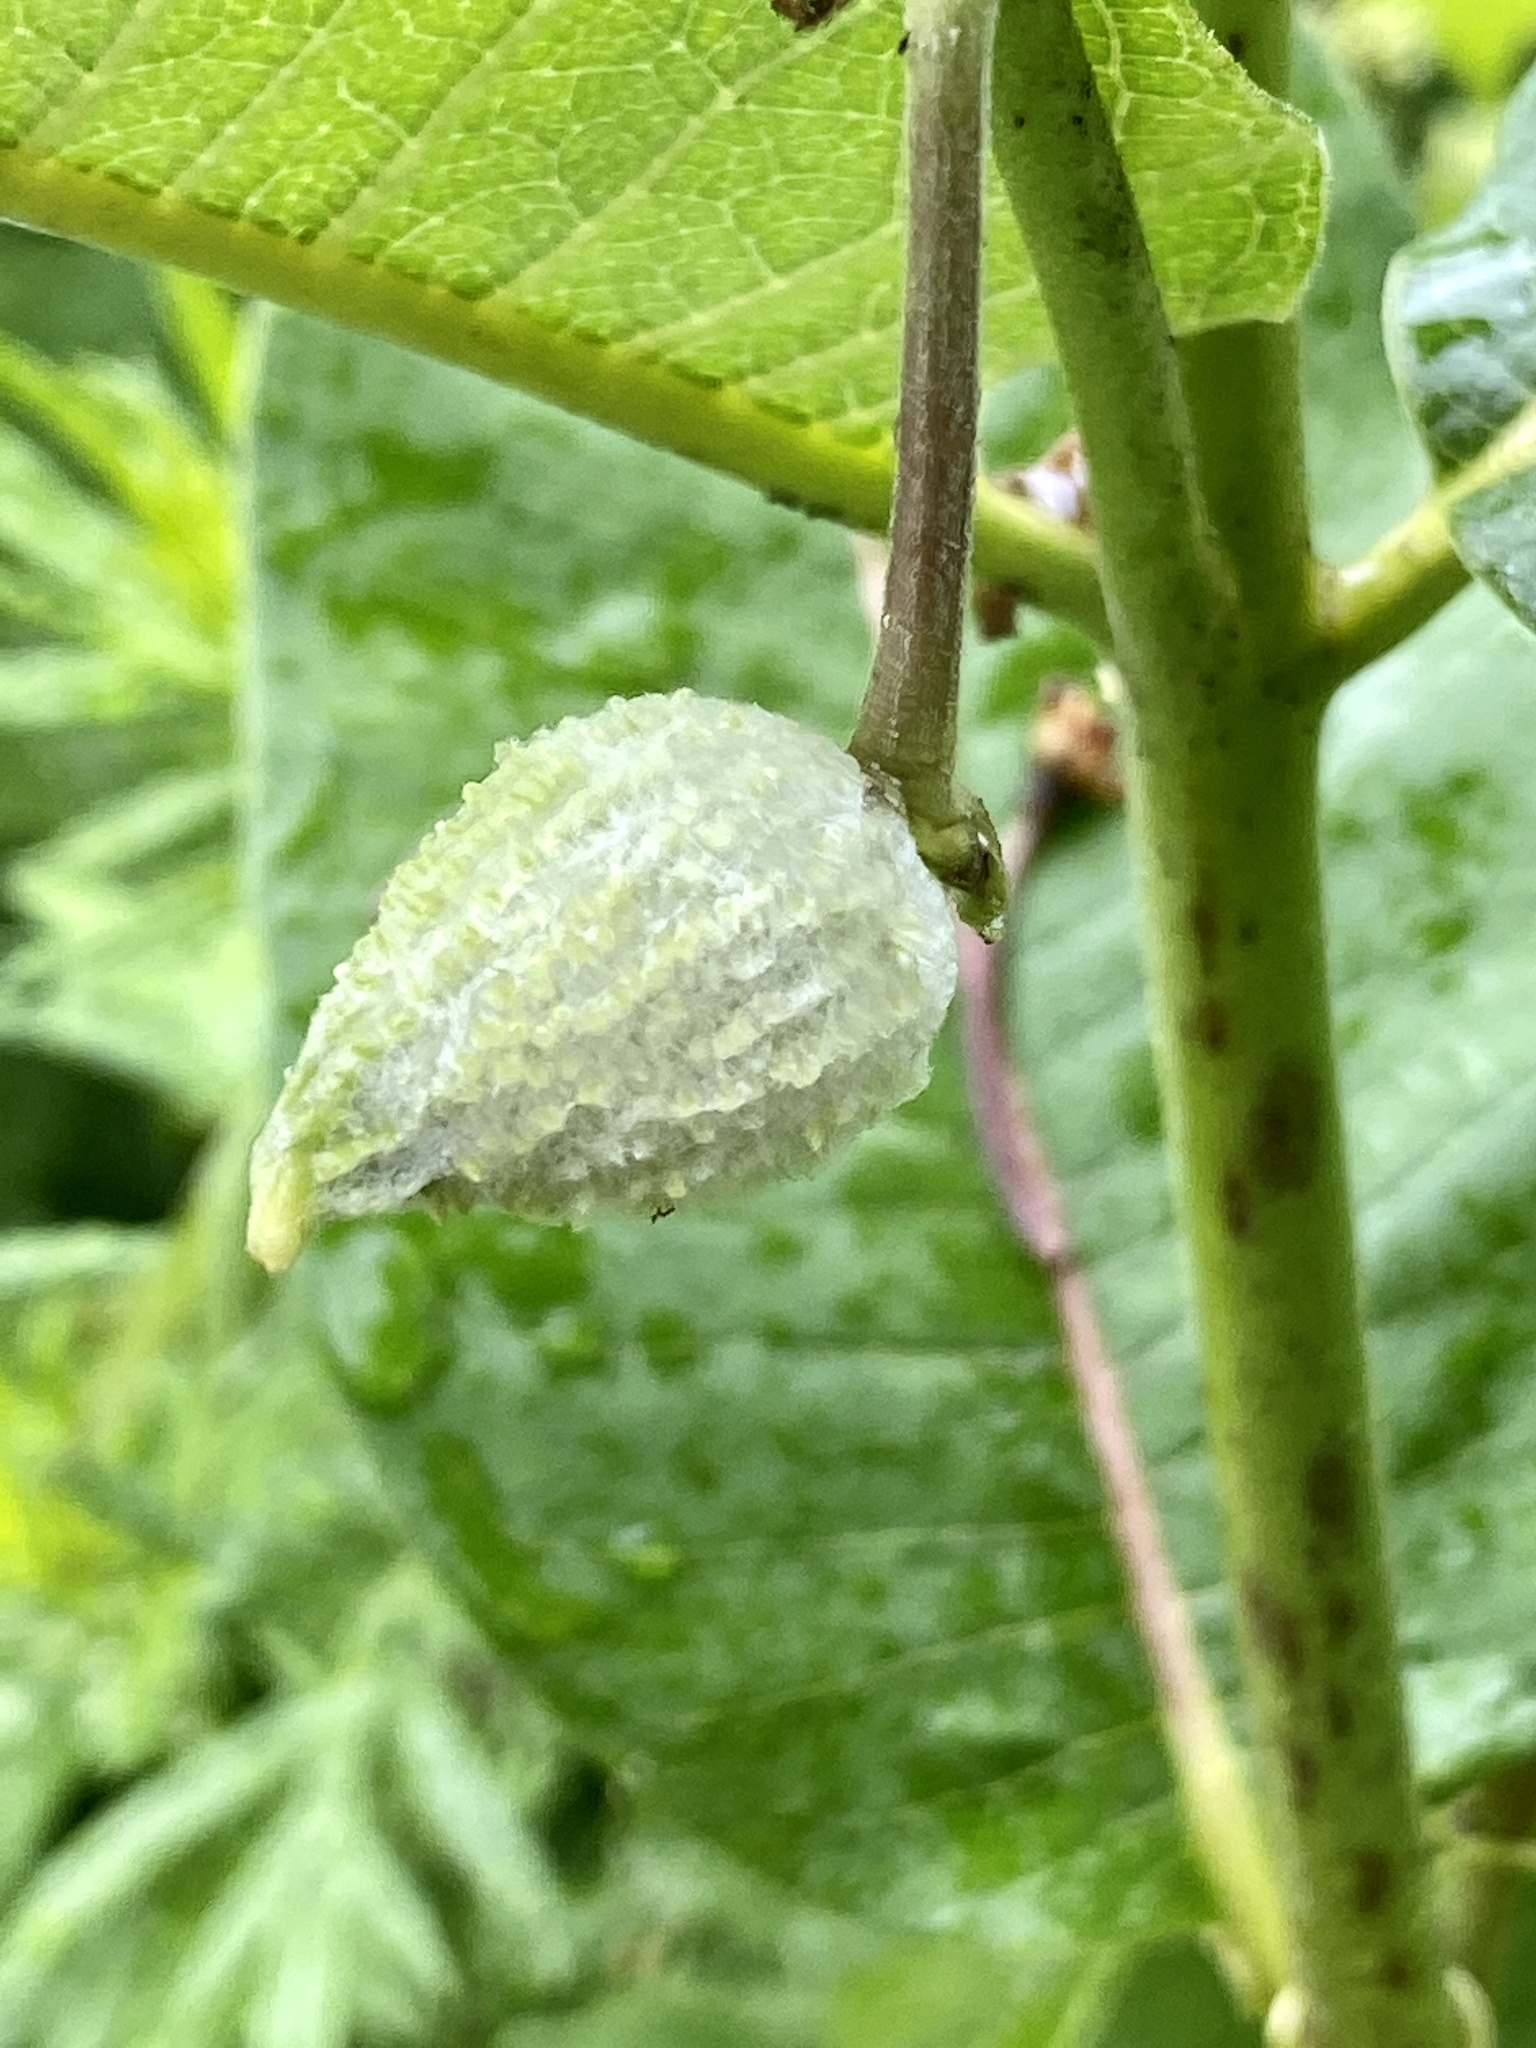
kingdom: Plantae
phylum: Tracheophyta
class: Magnoliopsida
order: Gentianales
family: Apocynaceae
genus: Asclepias
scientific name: Asclepias syriaca
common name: Common milkweed
